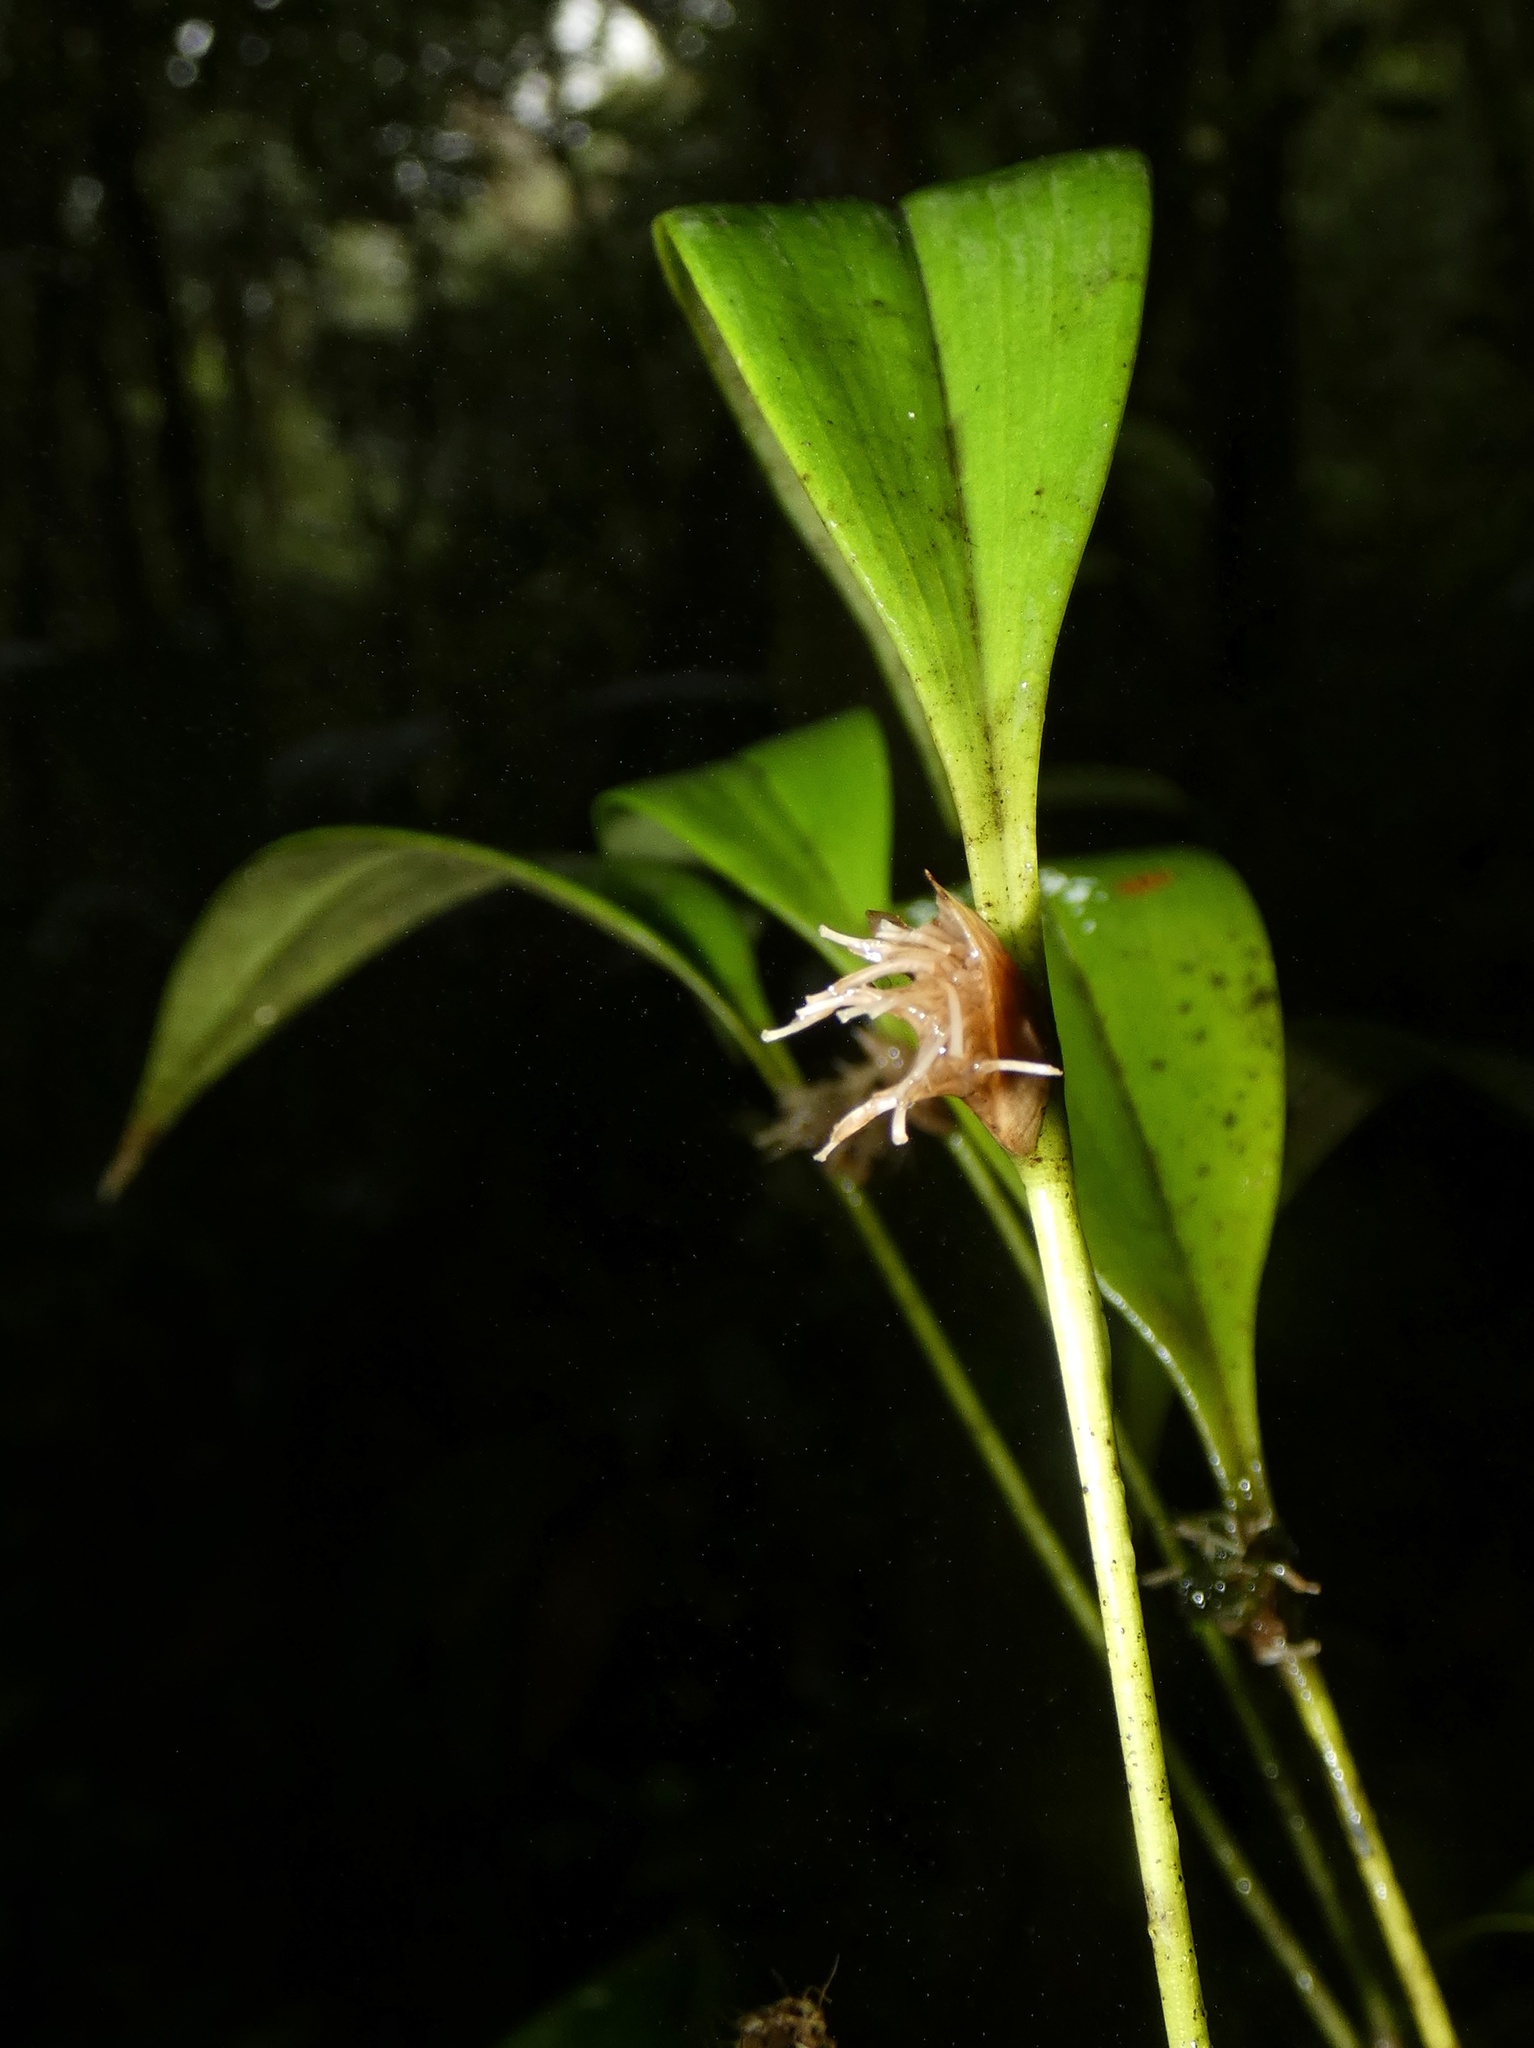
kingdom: Plantae
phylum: Tracheophyta
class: Liliopsida
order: Asparagales
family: Orchidaceae
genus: Pleurothallis
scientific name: Pleurothallis ruscifolia
